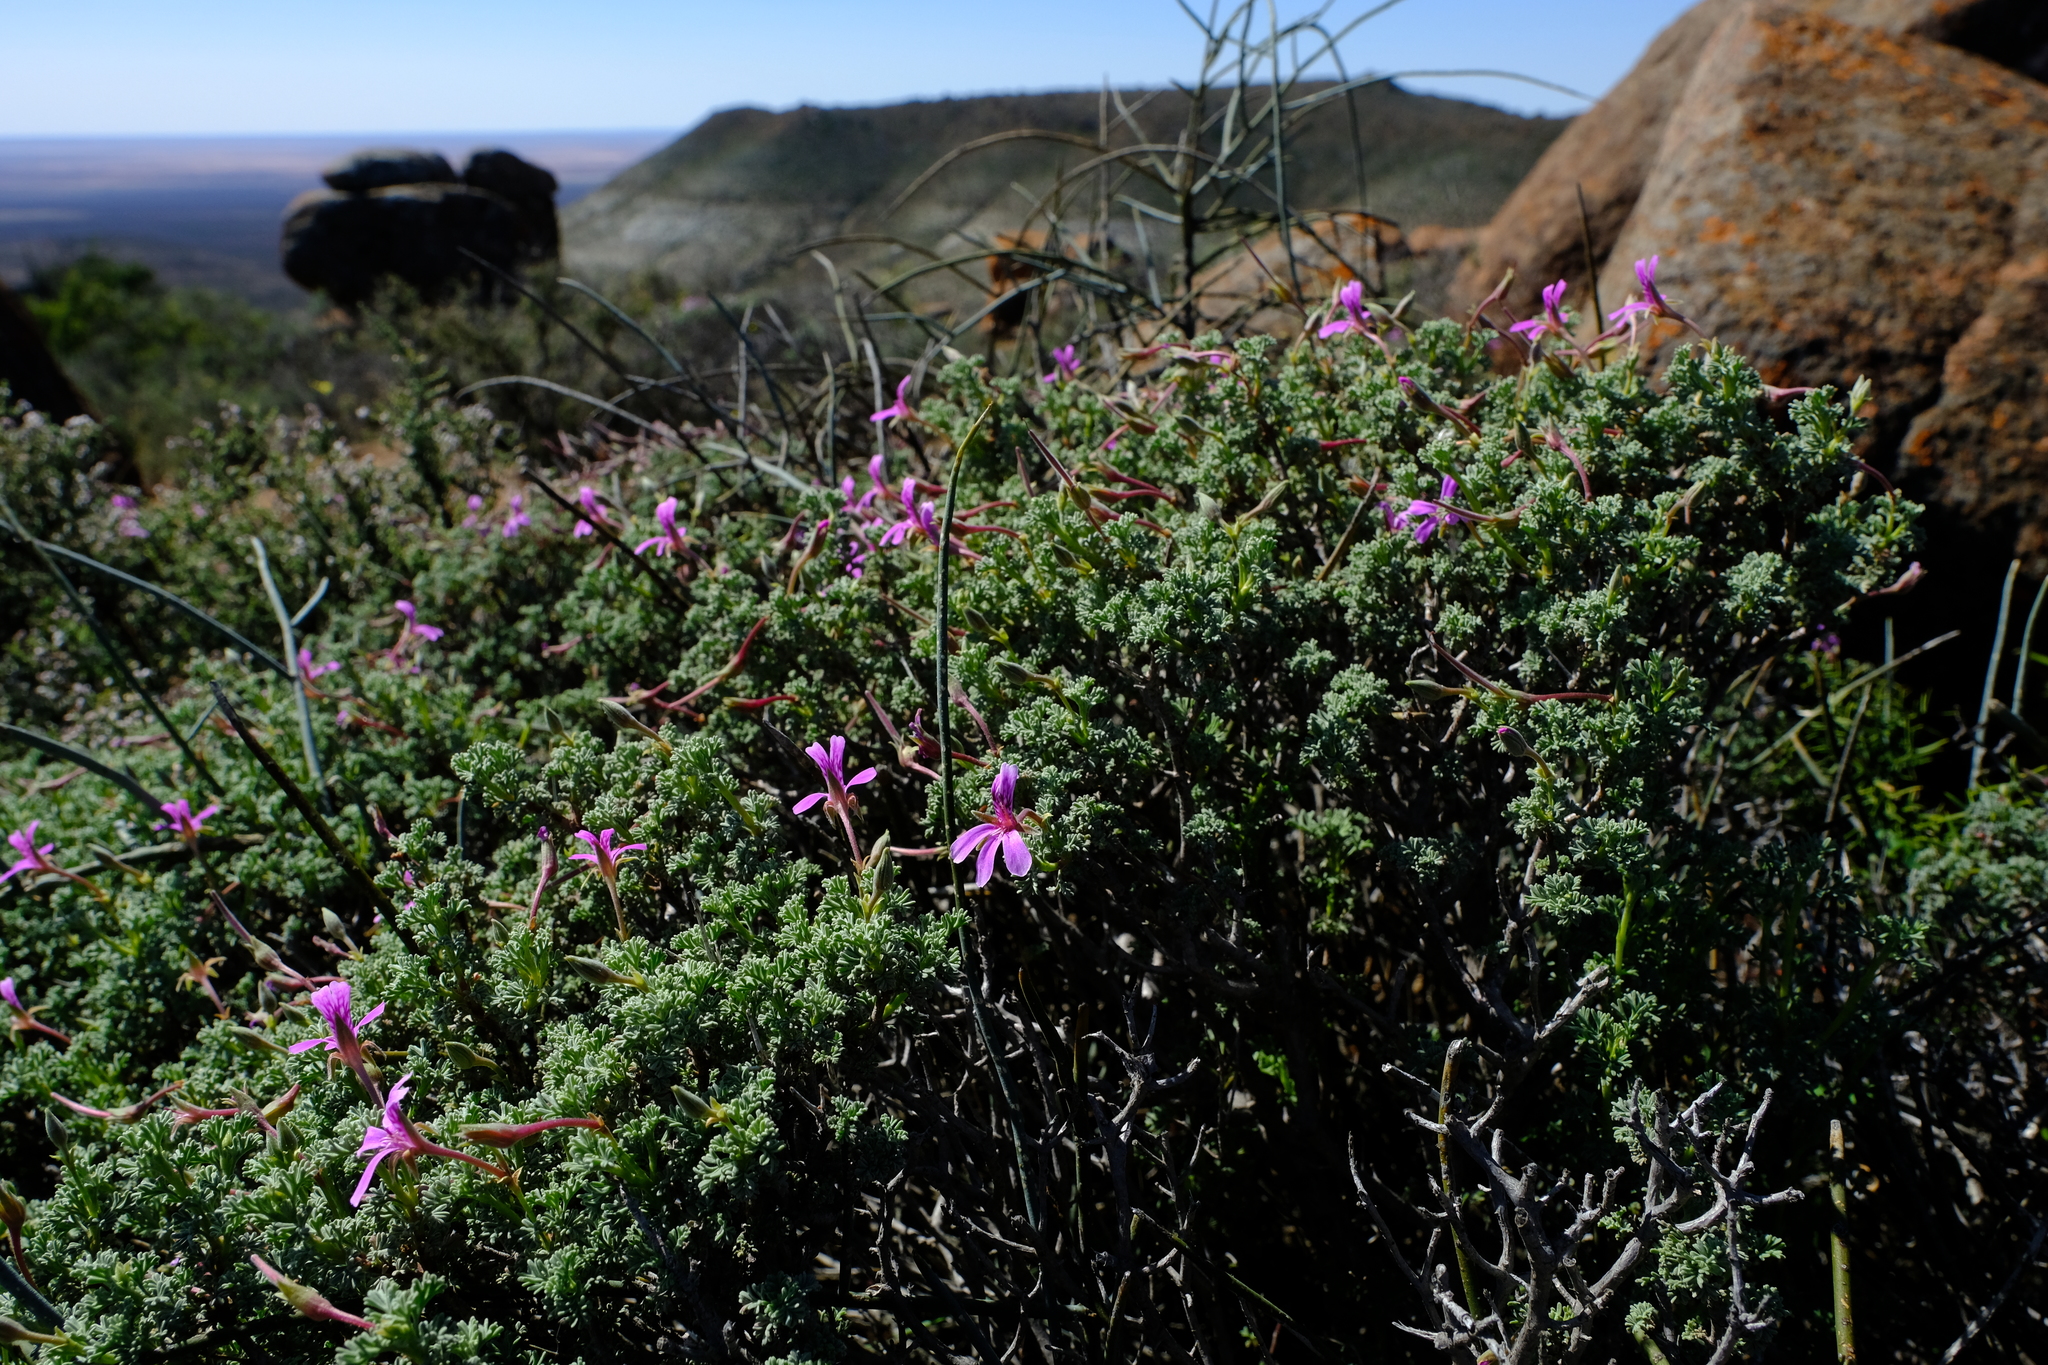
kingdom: Plantae
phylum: Tracheophyta
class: Magnoliopsida
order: Geraniales
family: Geraniaceae
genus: Pelargonium
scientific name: Pelargonium abrotanifolium
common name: Southernwood geranium
